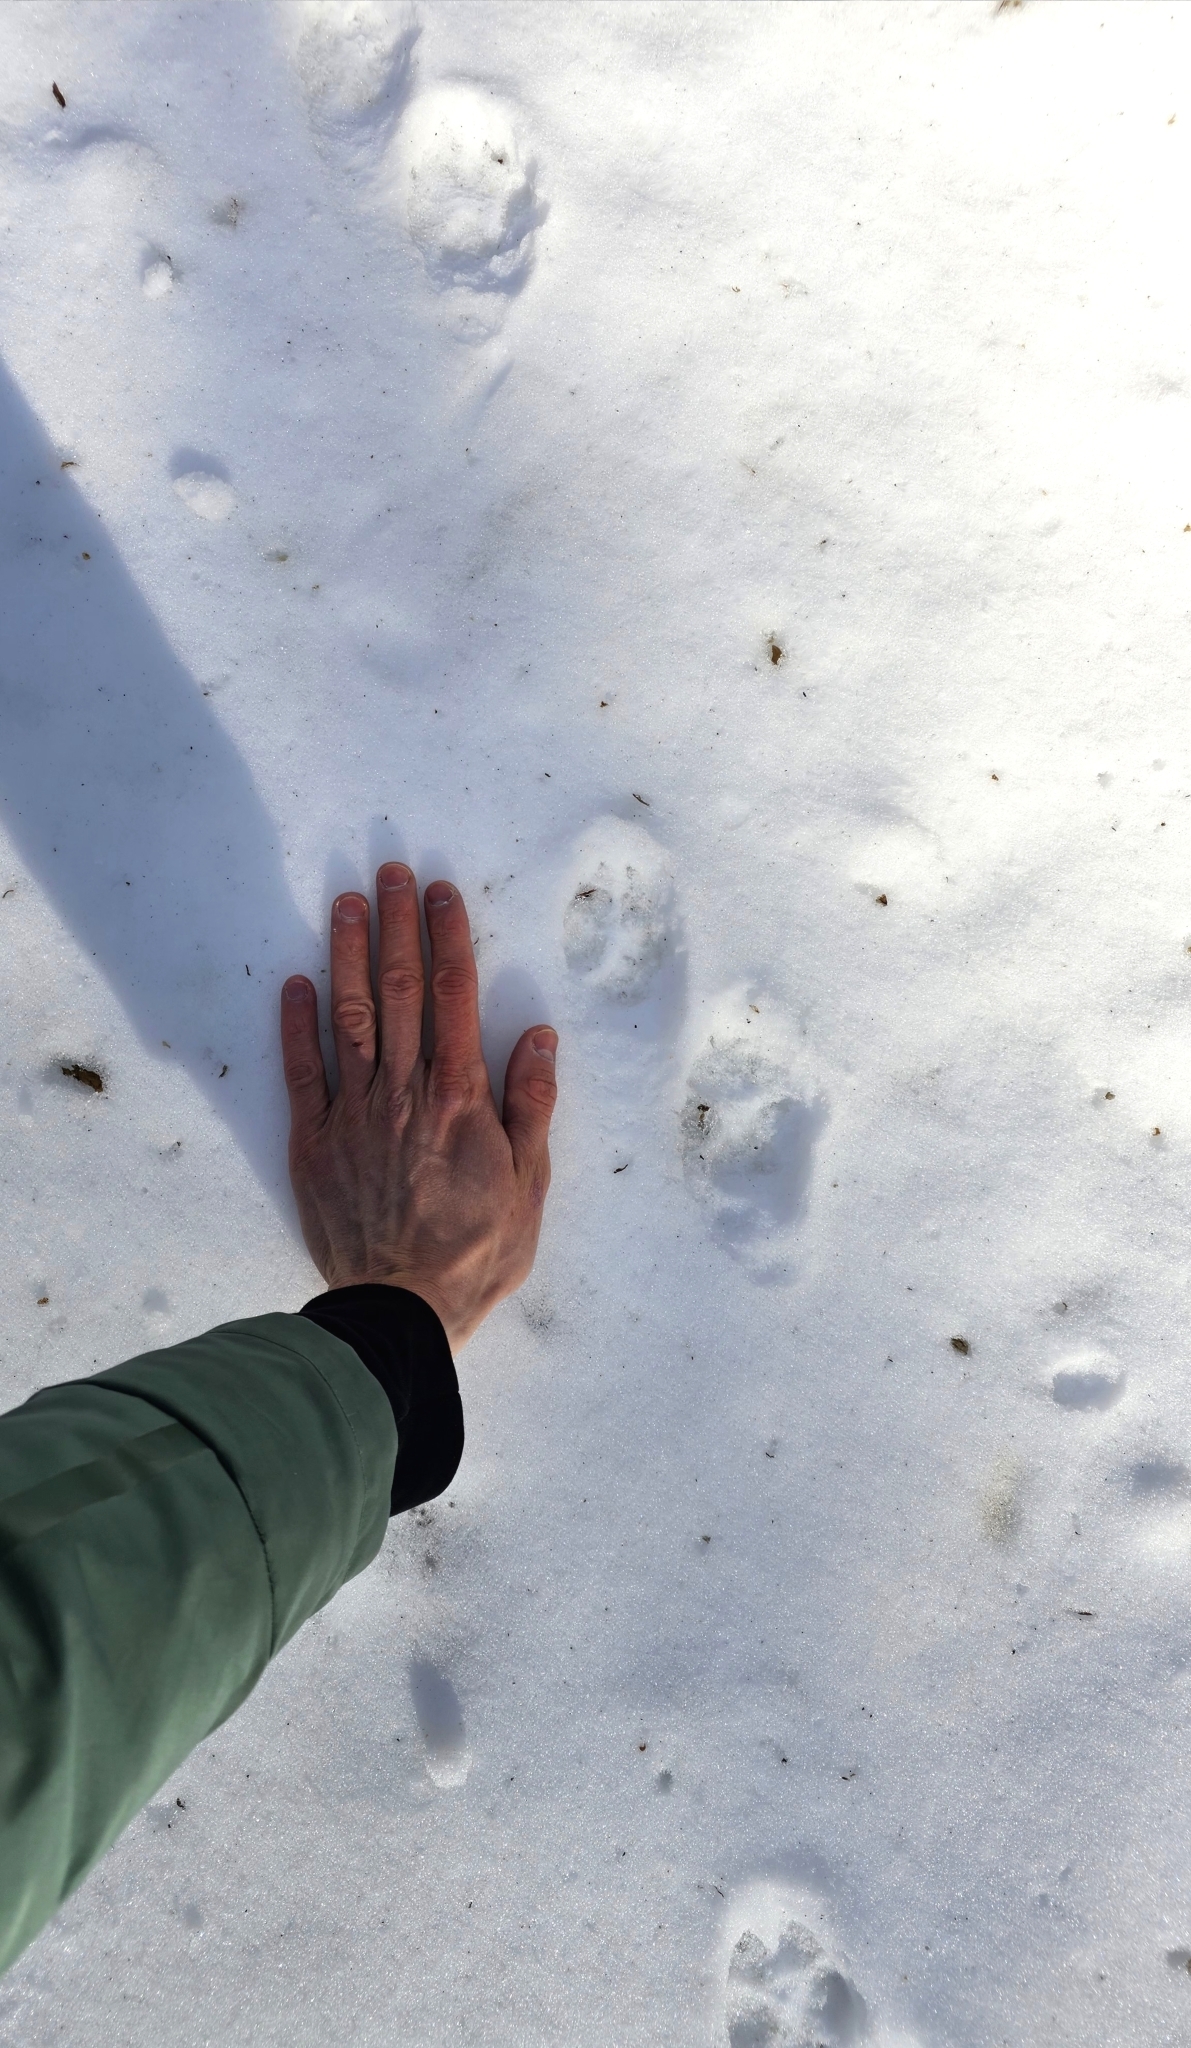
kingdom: Animalia
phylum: Chordata
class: Mammalia
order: Carnivora
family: Mustelidae
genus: Martes
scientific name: Martes martes
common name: European pine marten
